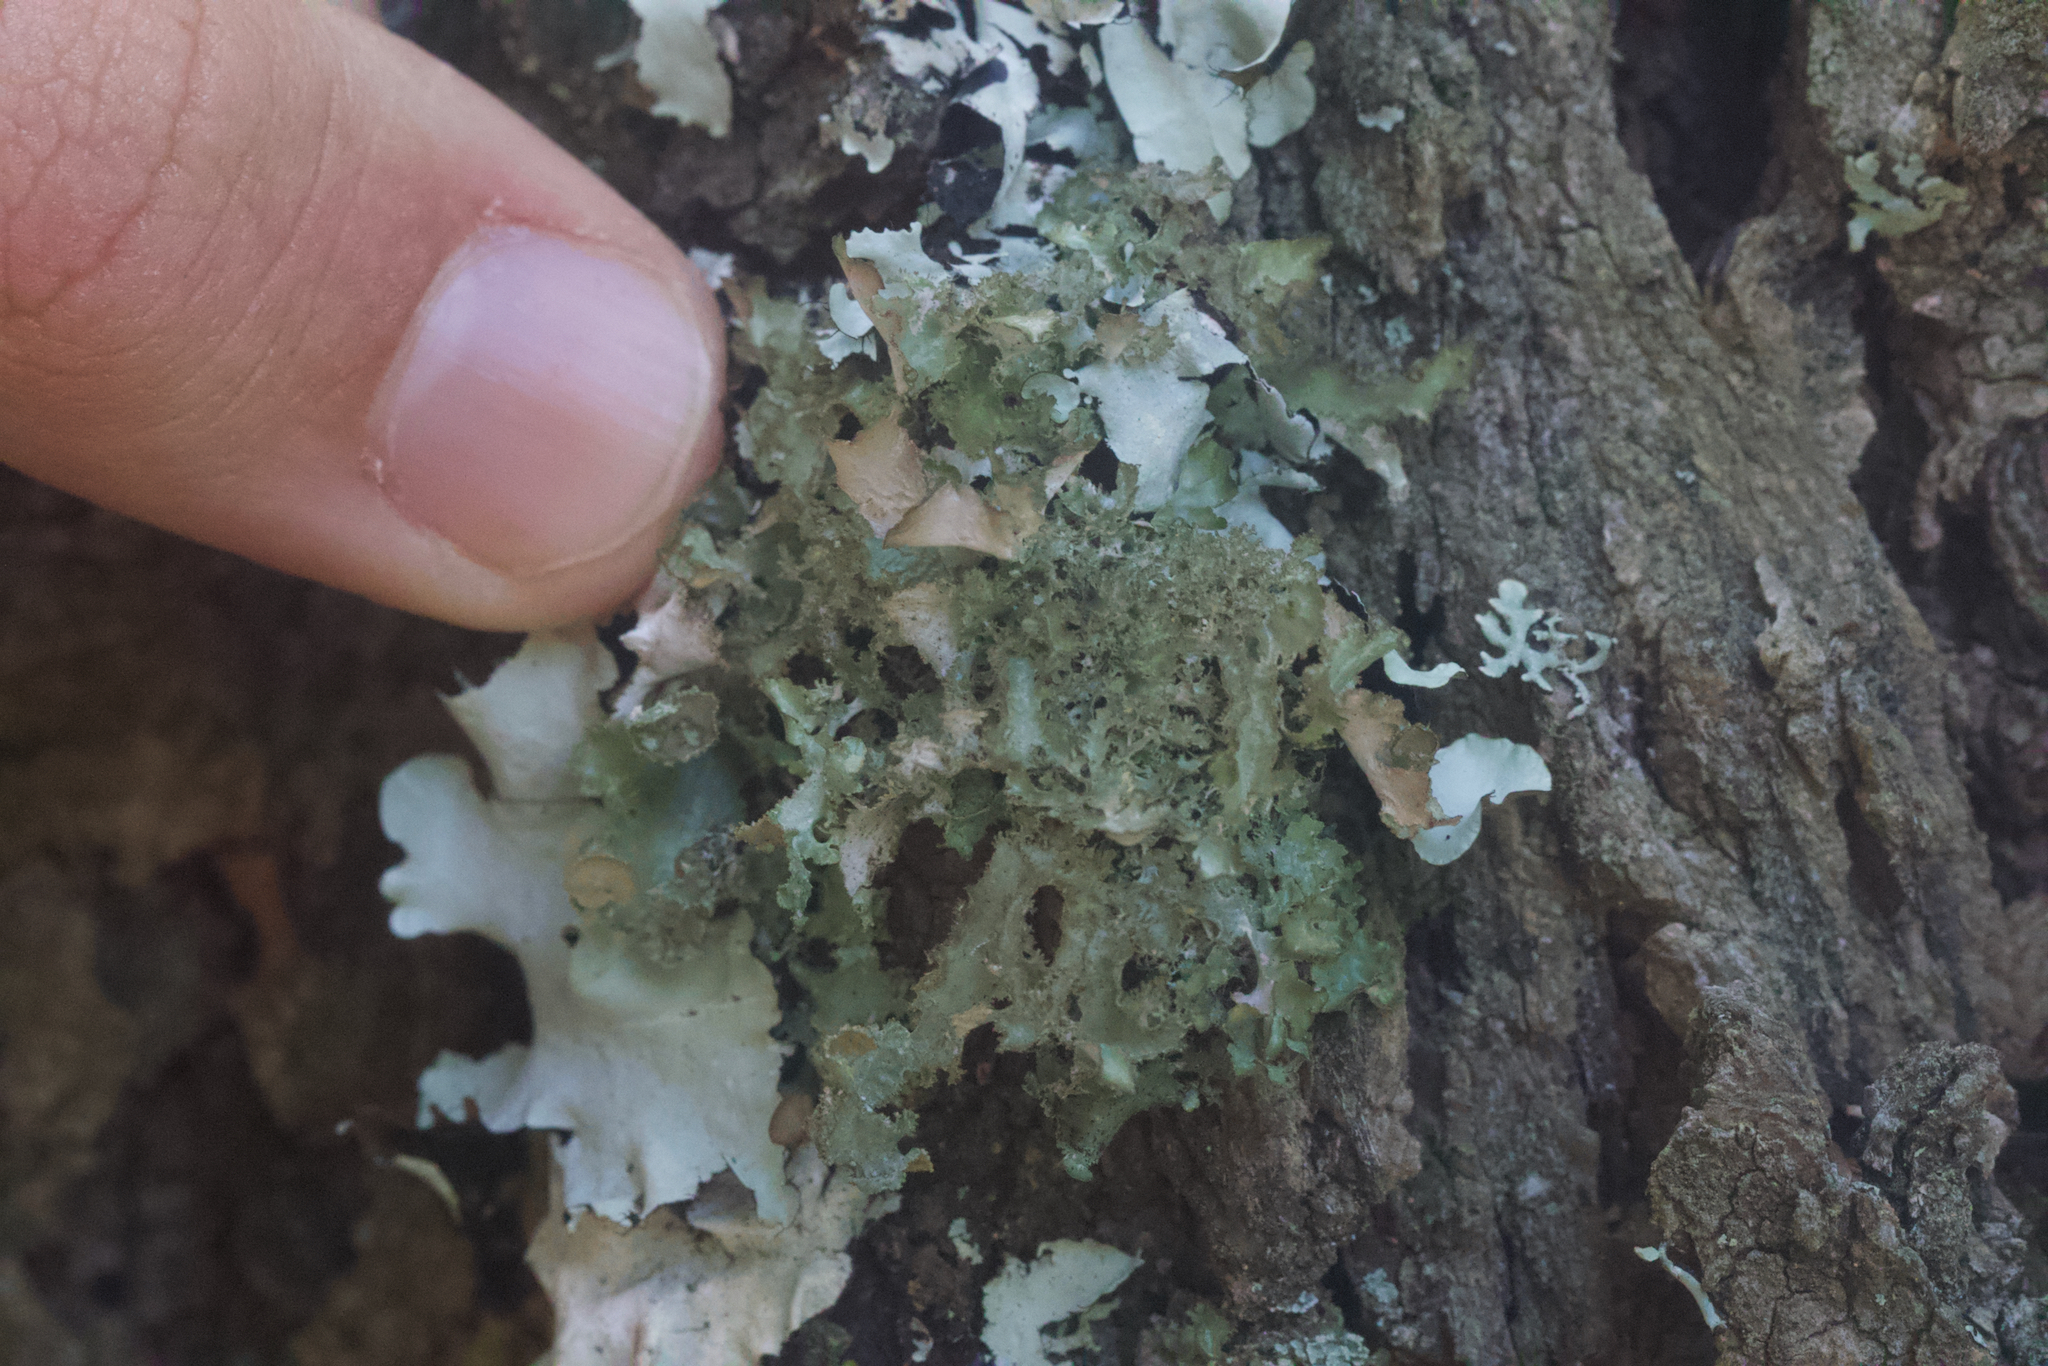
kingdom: Fungi
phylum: Ascomycota
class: Lecanoromycetes
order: Lecanorales
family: Parmeliaceae
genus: Nephromopsis
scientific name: Nephromopsis orbata
